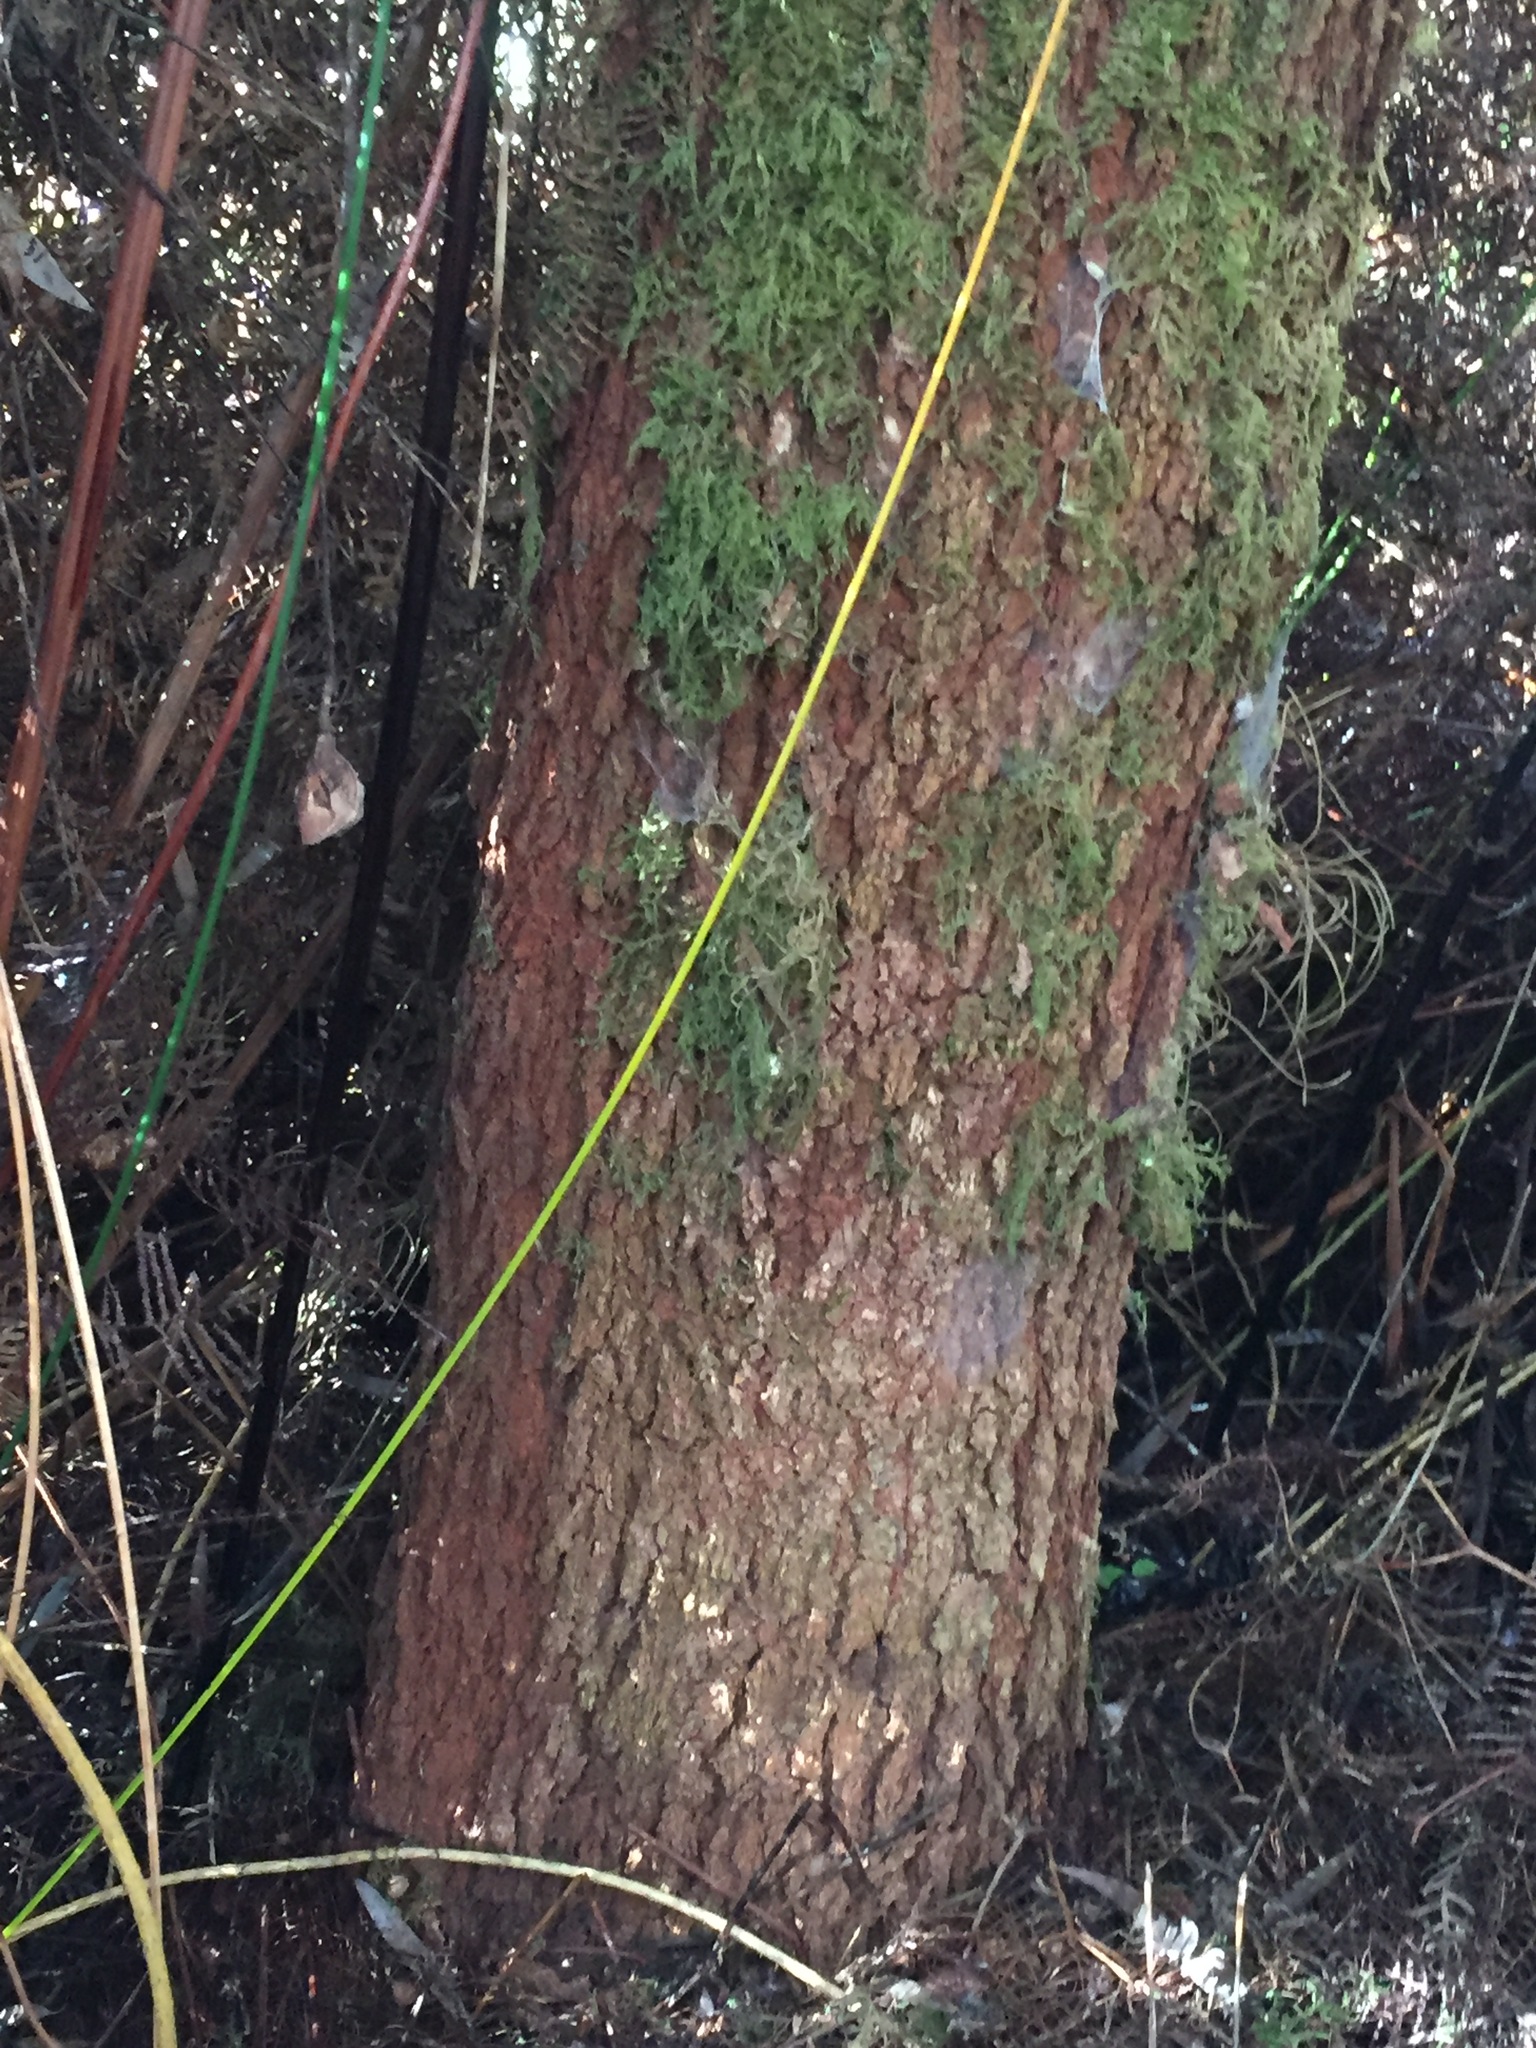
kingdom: Plantae
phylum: Tracheophyta
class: Magnoliopsida
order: Proteales
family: Proteaceae
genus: Hakea
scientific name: Hakea salicifolia
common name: Willow hakea
